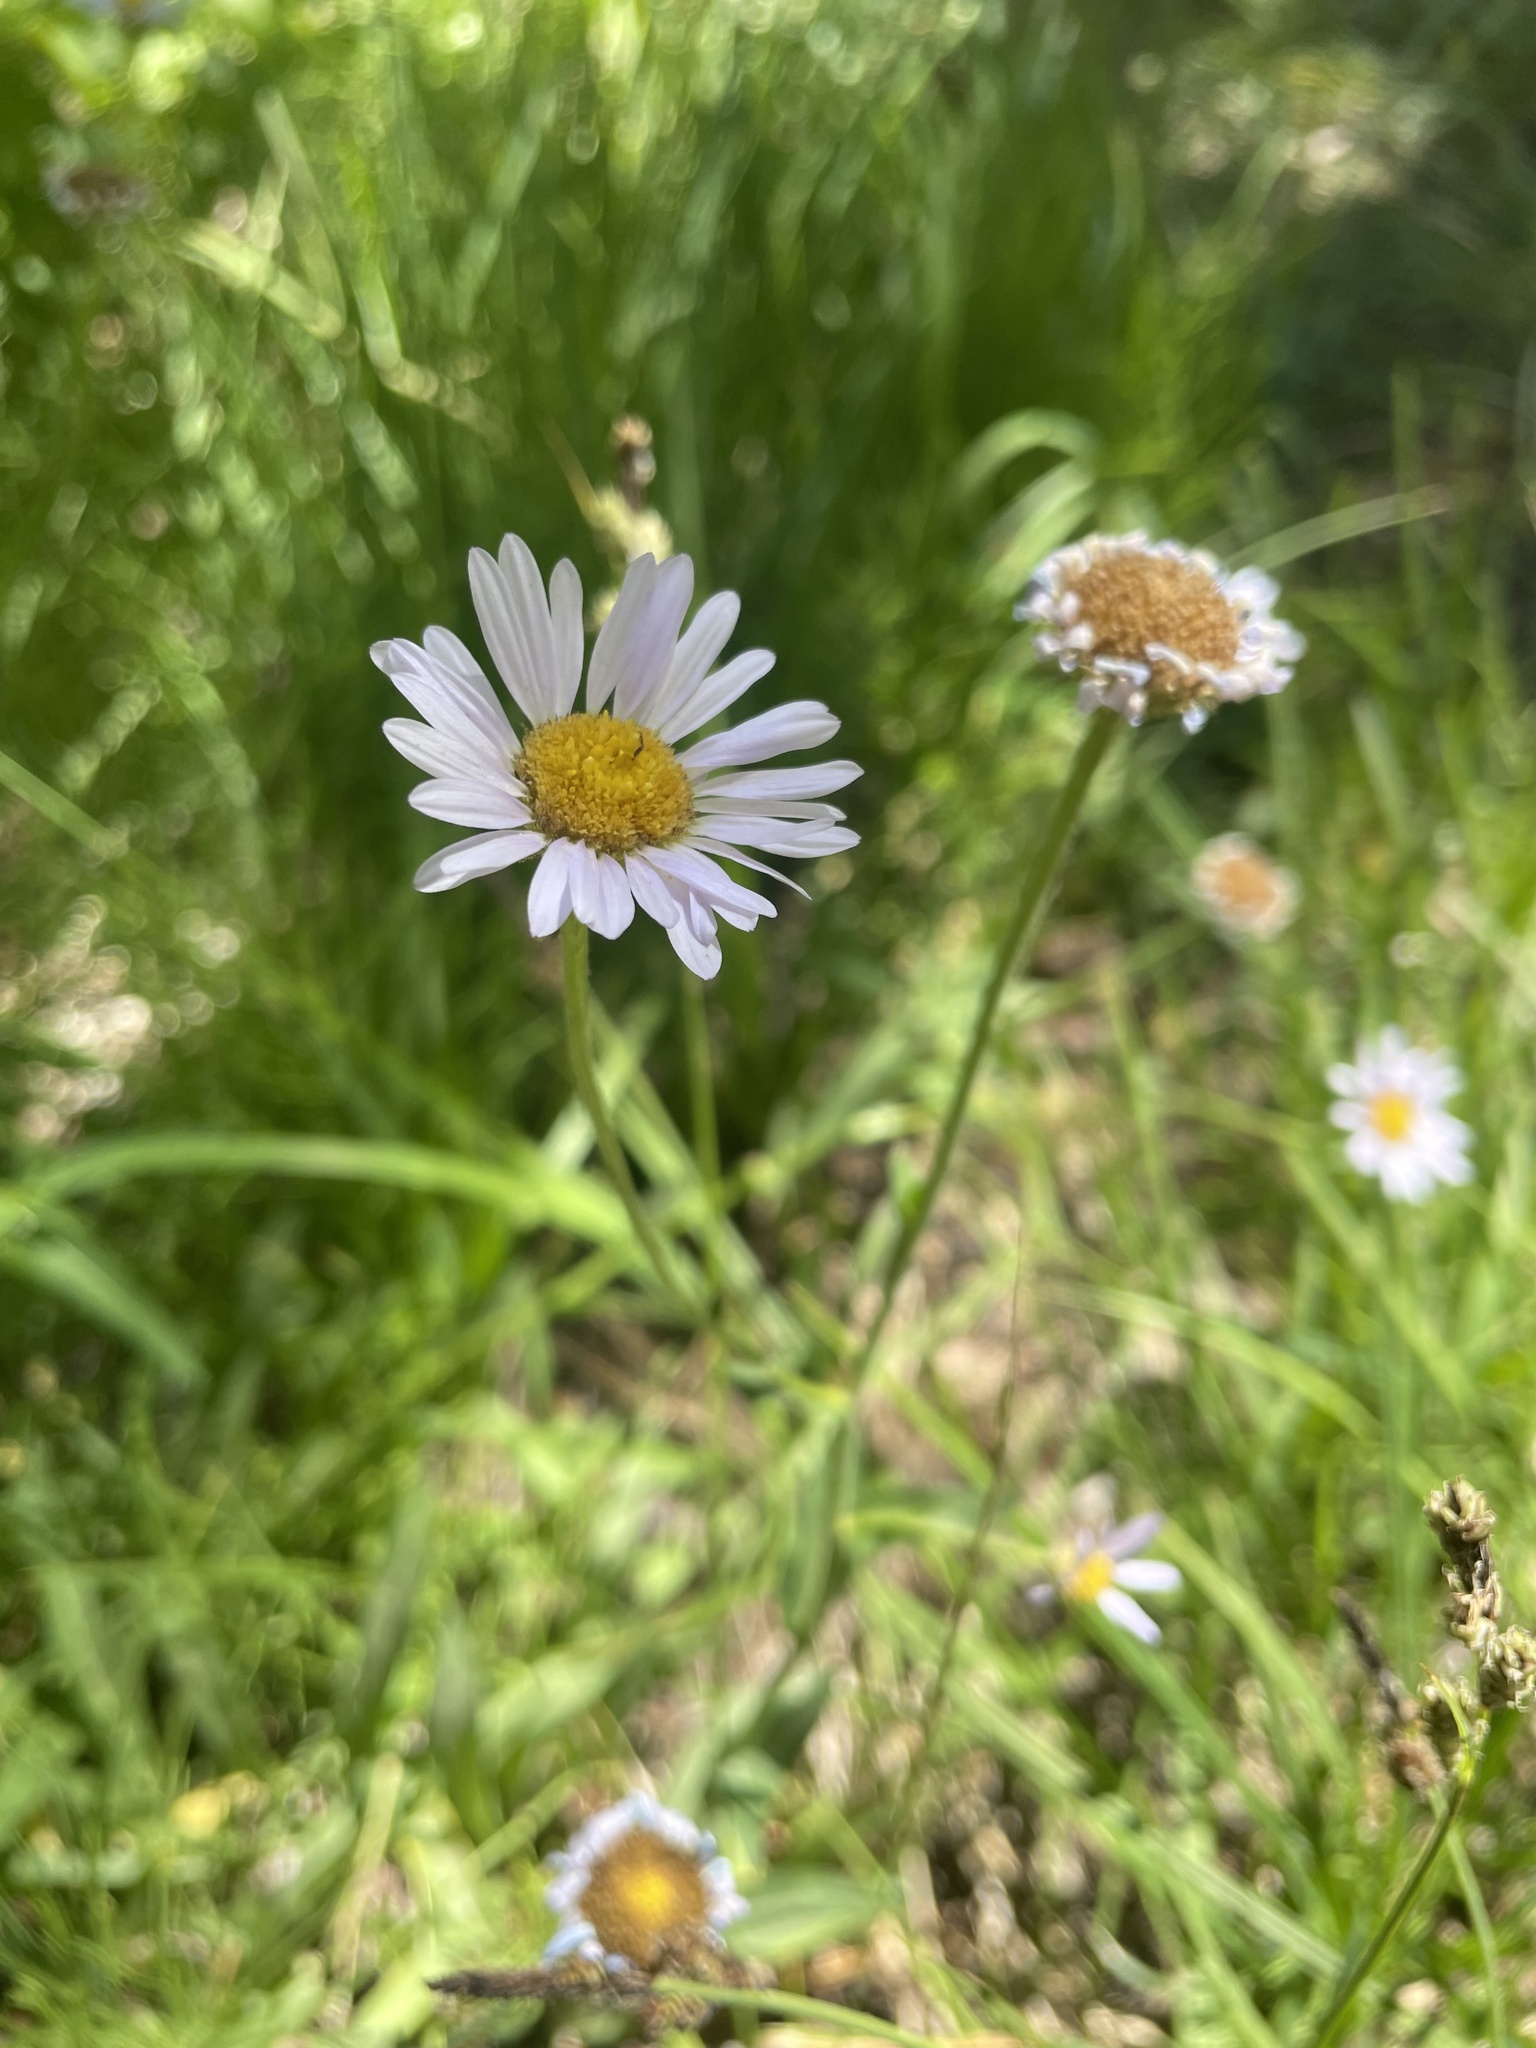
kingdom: Plantae
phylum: Tracheophyta
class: Magnoliopsida
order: Asterales
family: Asteraceae
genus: Erigeron
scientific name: Erigeron glacialis
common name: Subalpine fleabane
